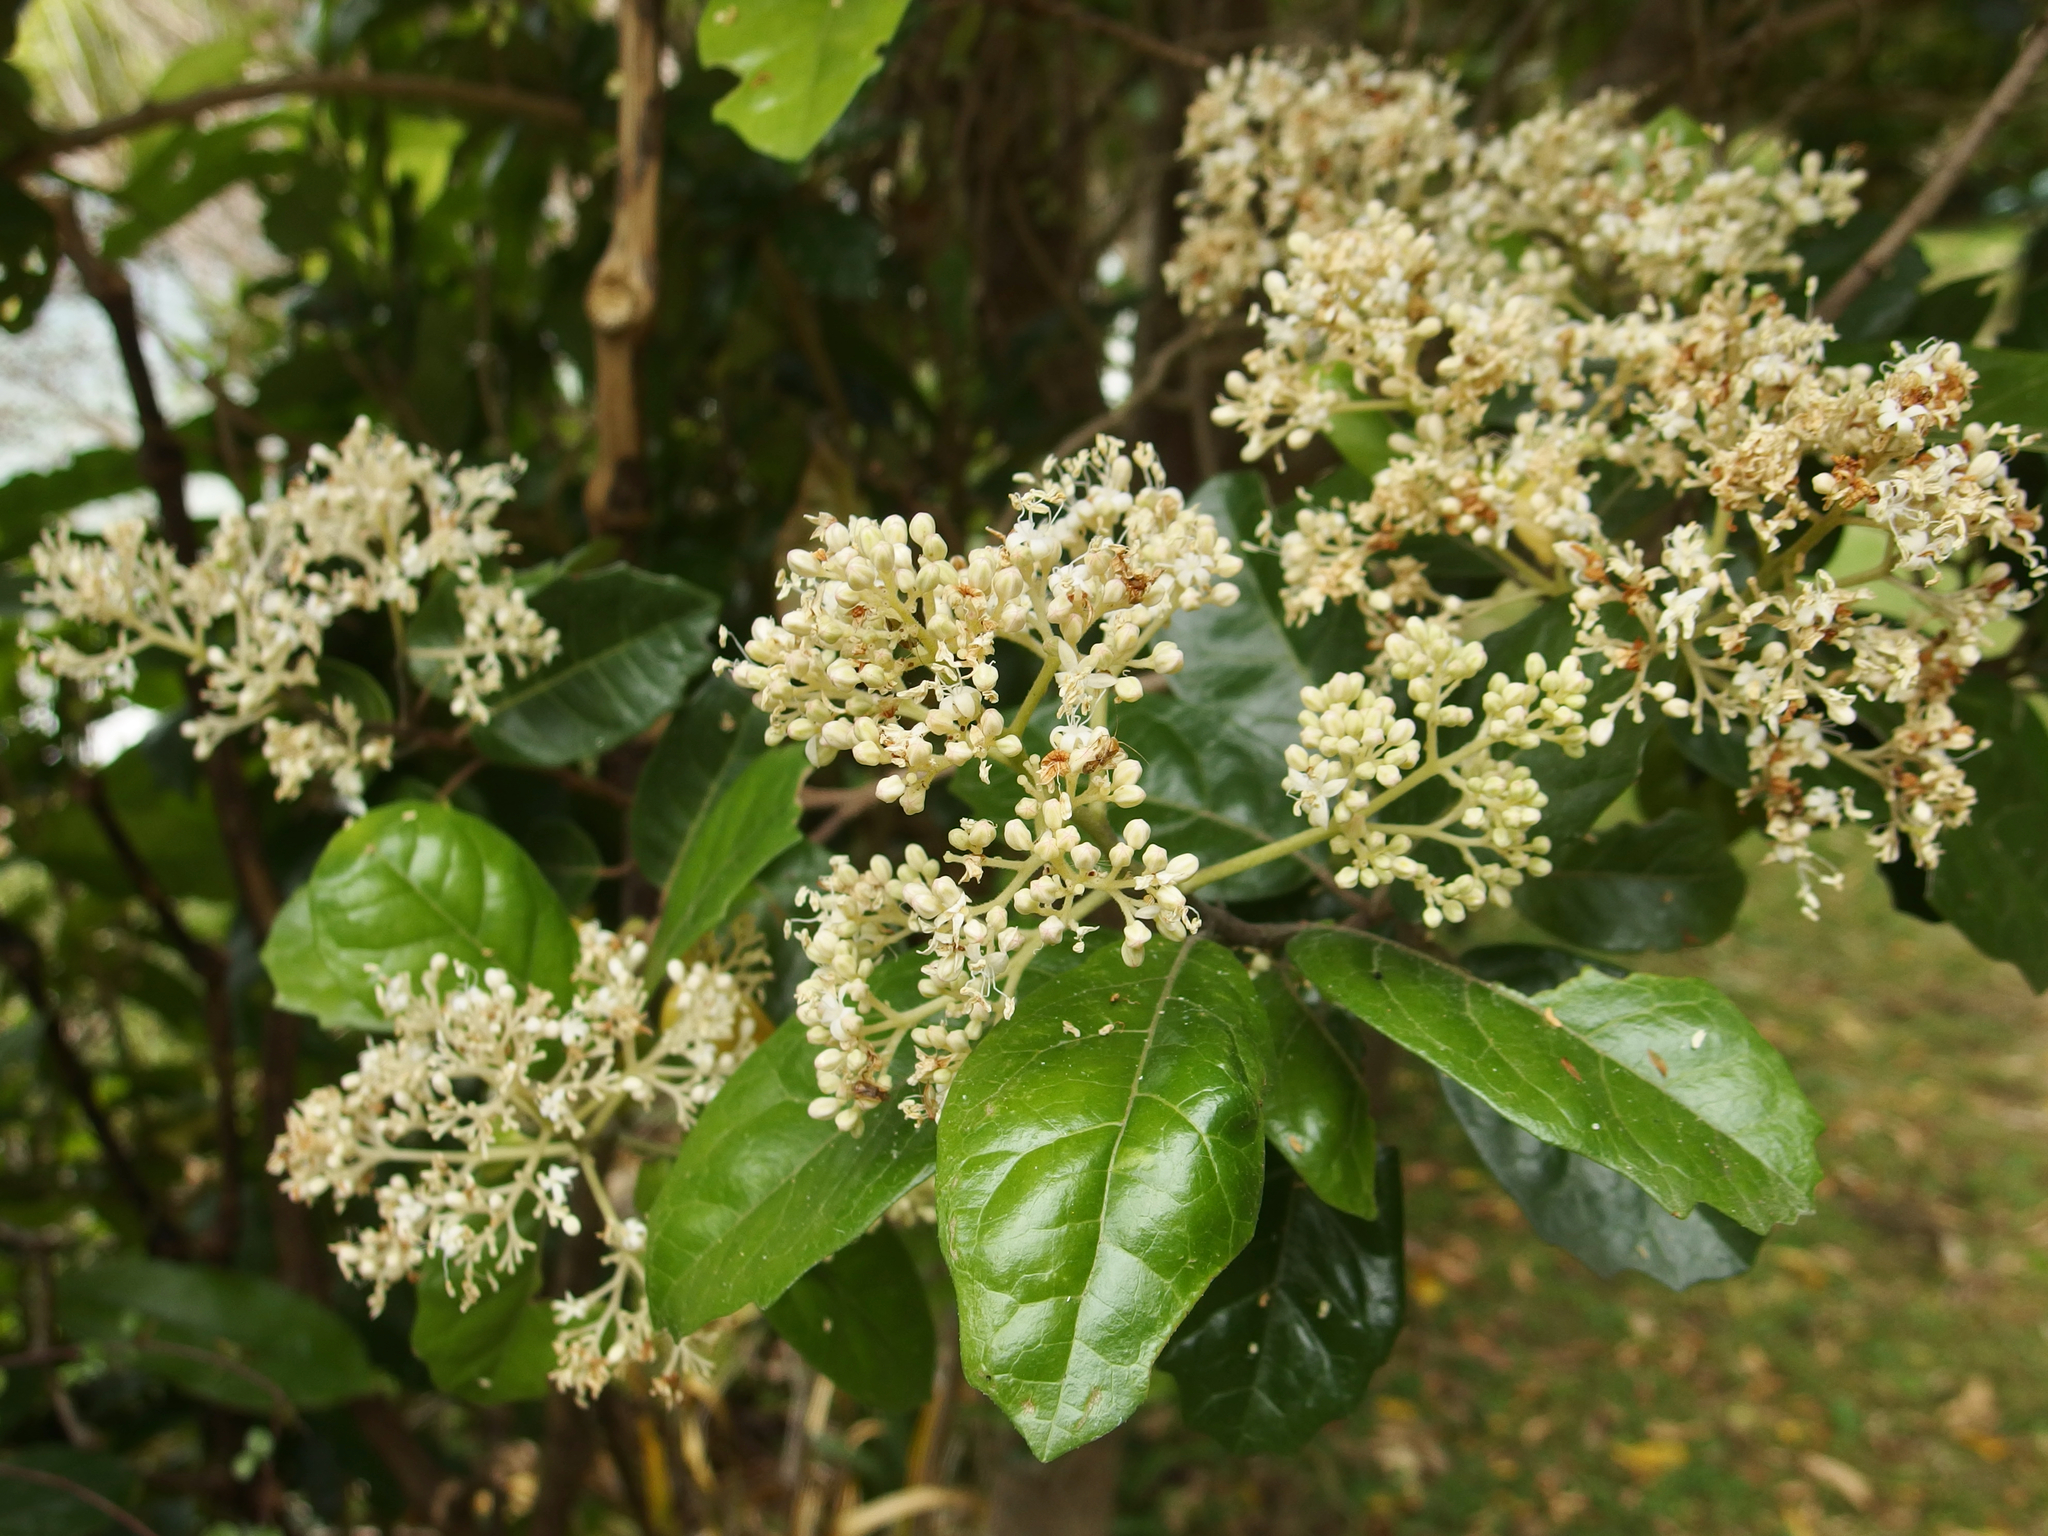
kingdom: Plantae
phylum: Tracheophyta
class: Magnoliopsida
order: Apiales
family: Pennantiaceae
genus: Pennantia
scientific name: Pennantia corymbosa
